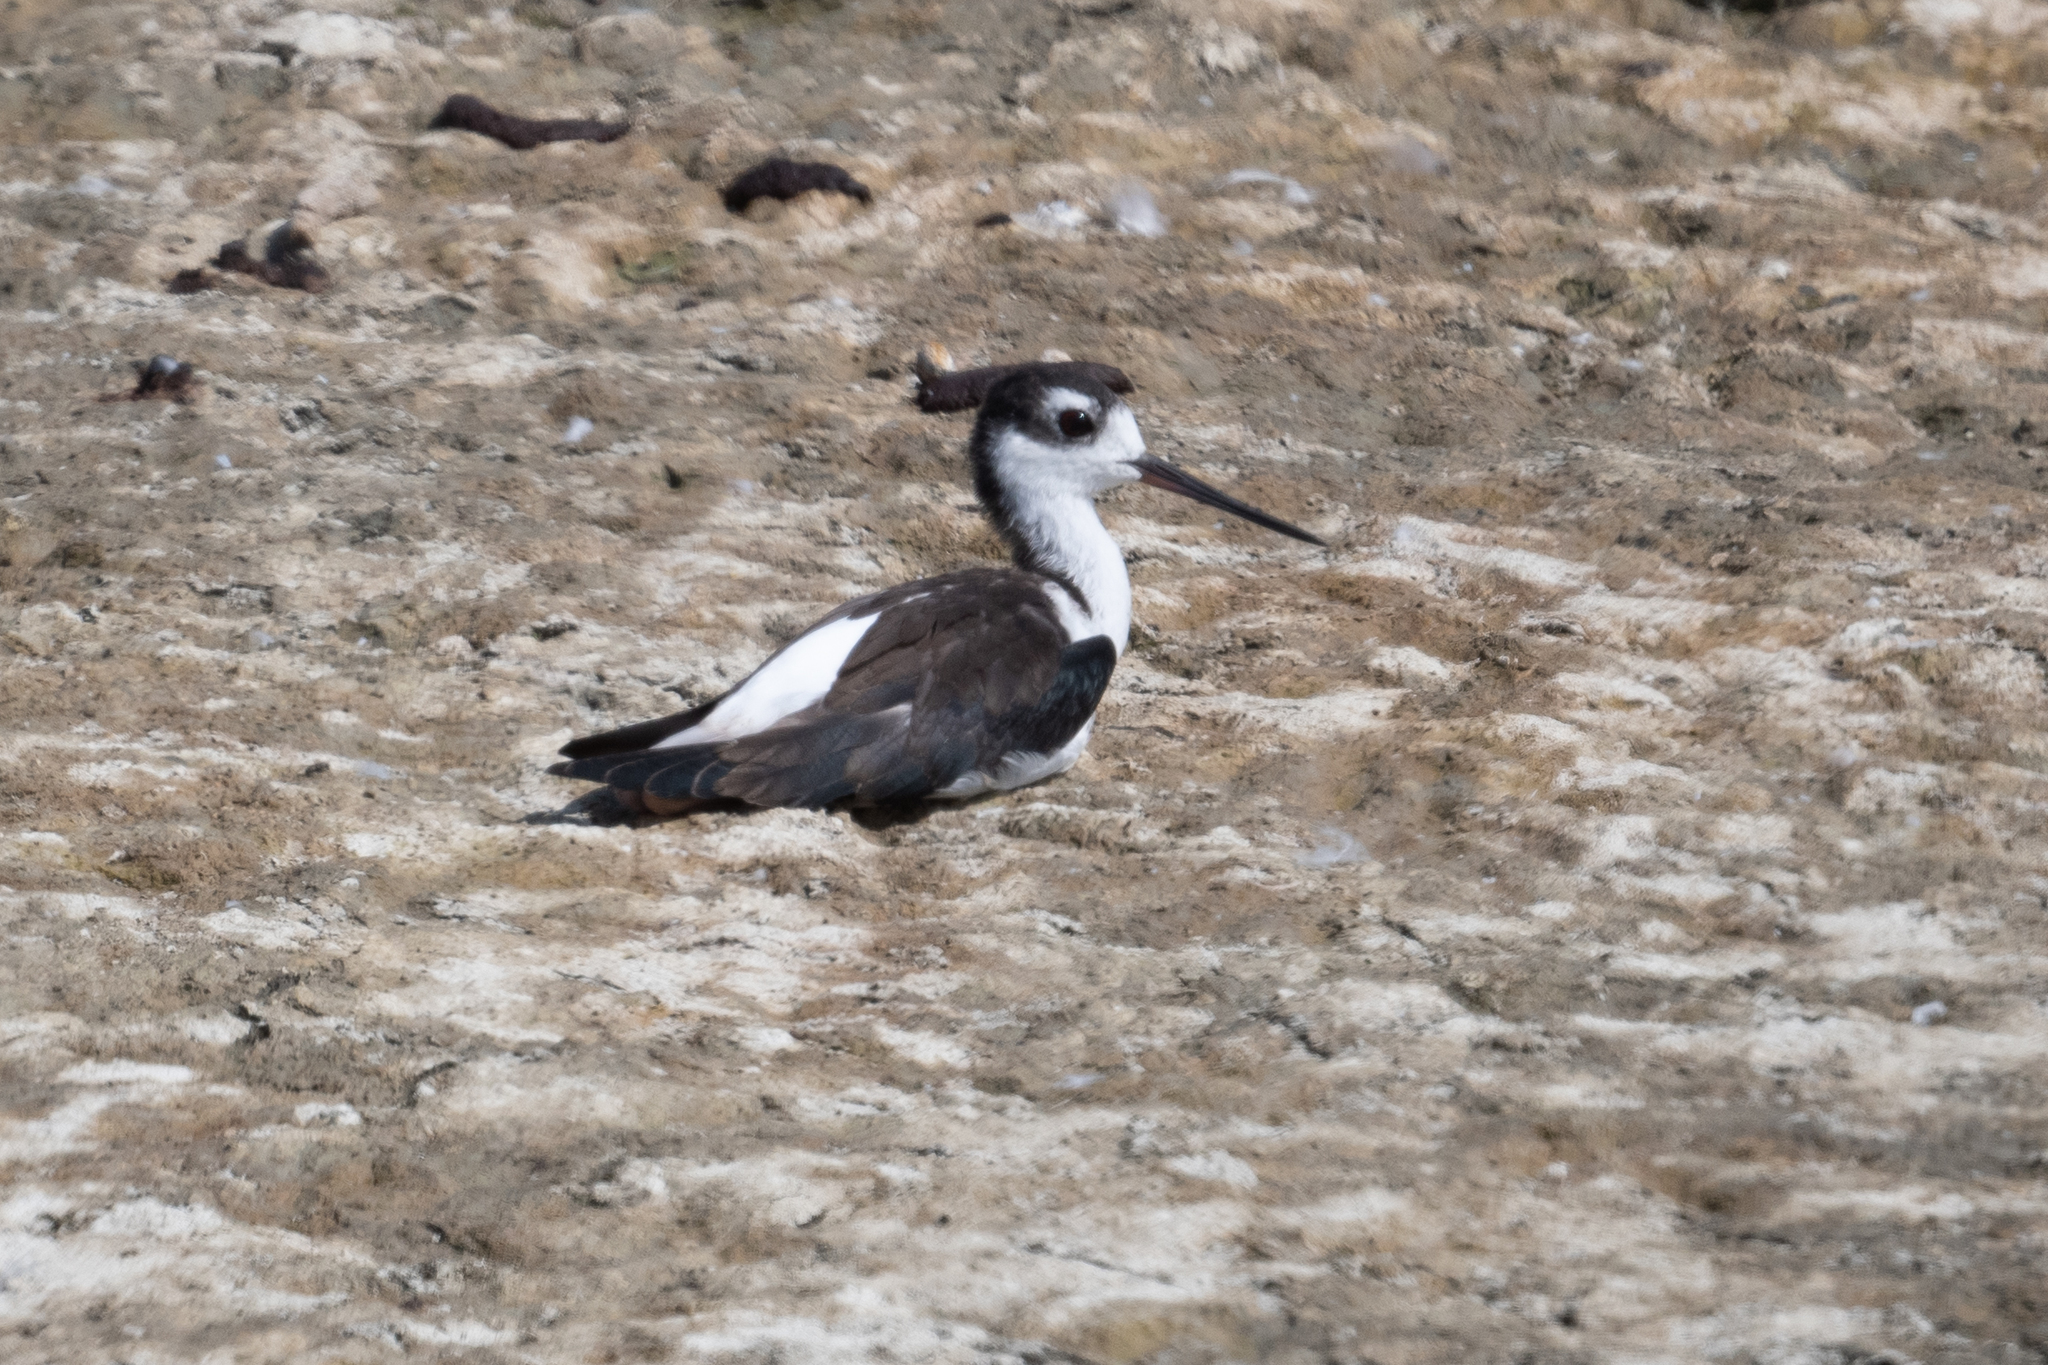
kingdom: Animalia
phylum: Chordata
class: Aves
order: Charadriiformes
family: Recurvirostridae
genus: Himantopus
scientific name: Himantopus mexicanus
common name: Black-necked stilt
